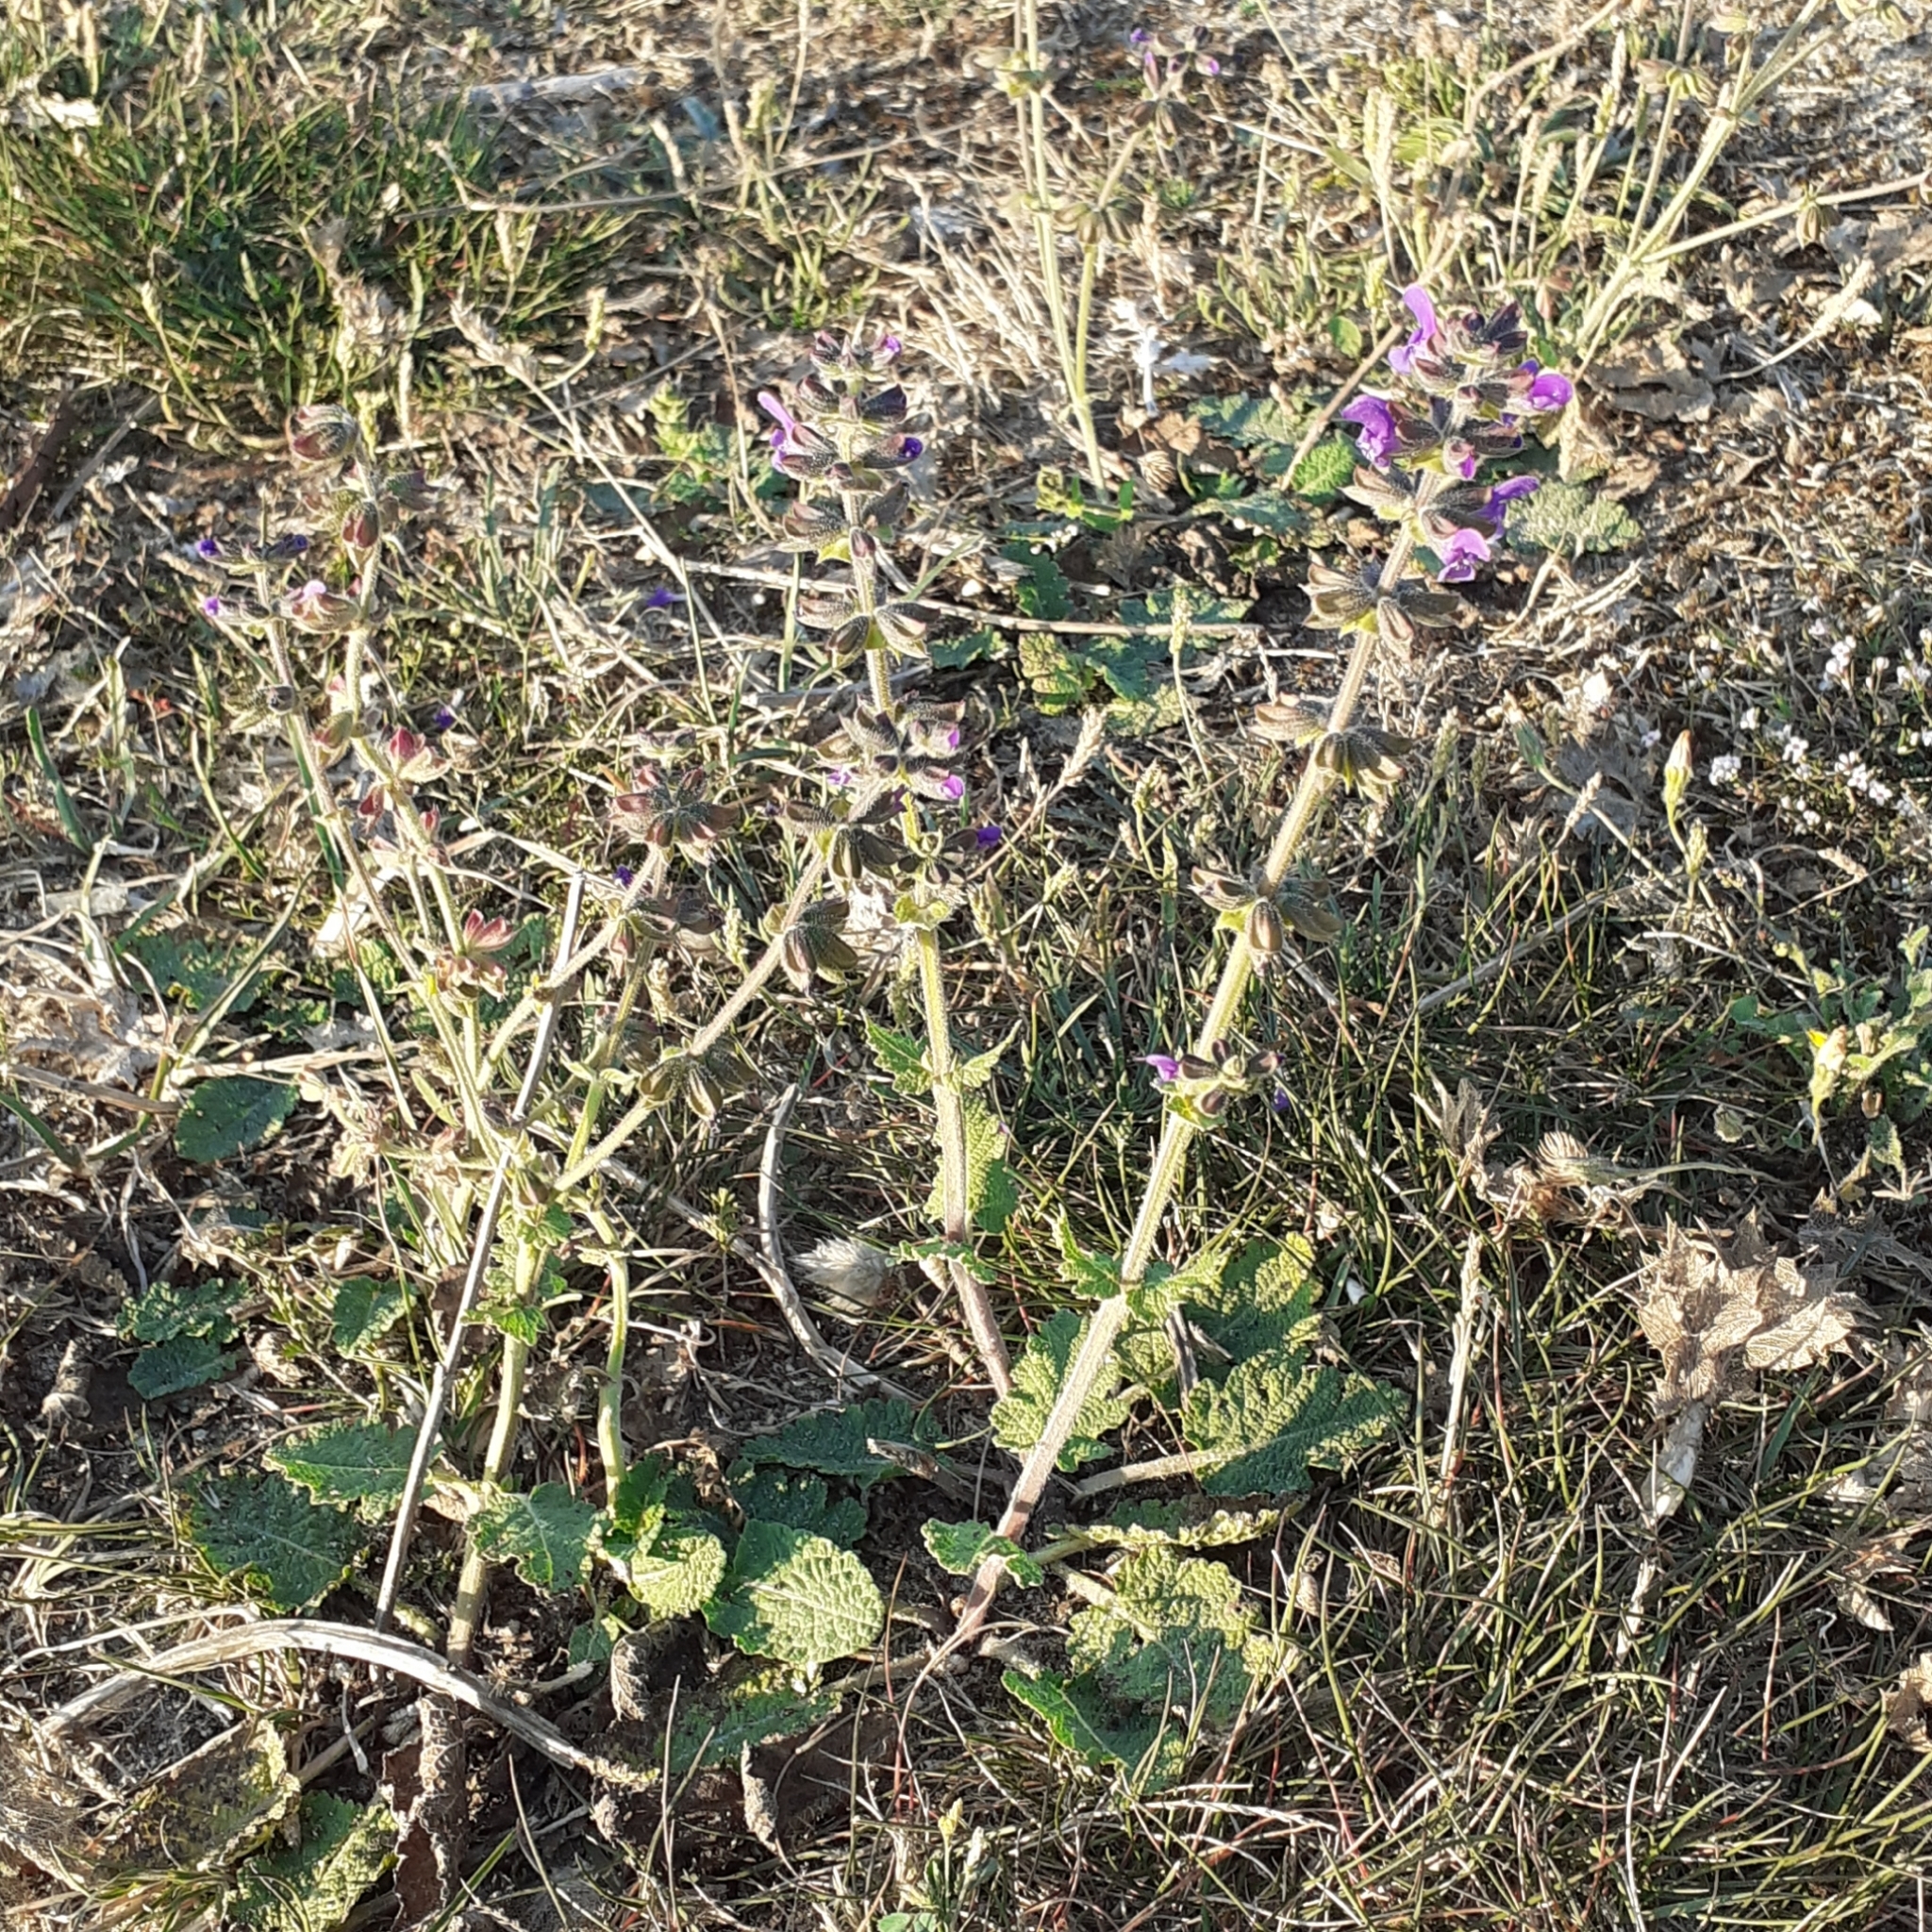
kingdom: Plantae
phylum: Tracheophyta
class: Magnoliopsida
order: Lamiales
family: Lamiaceae
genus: Salvia
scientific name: Salvia verbenaca
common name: Wild clary
